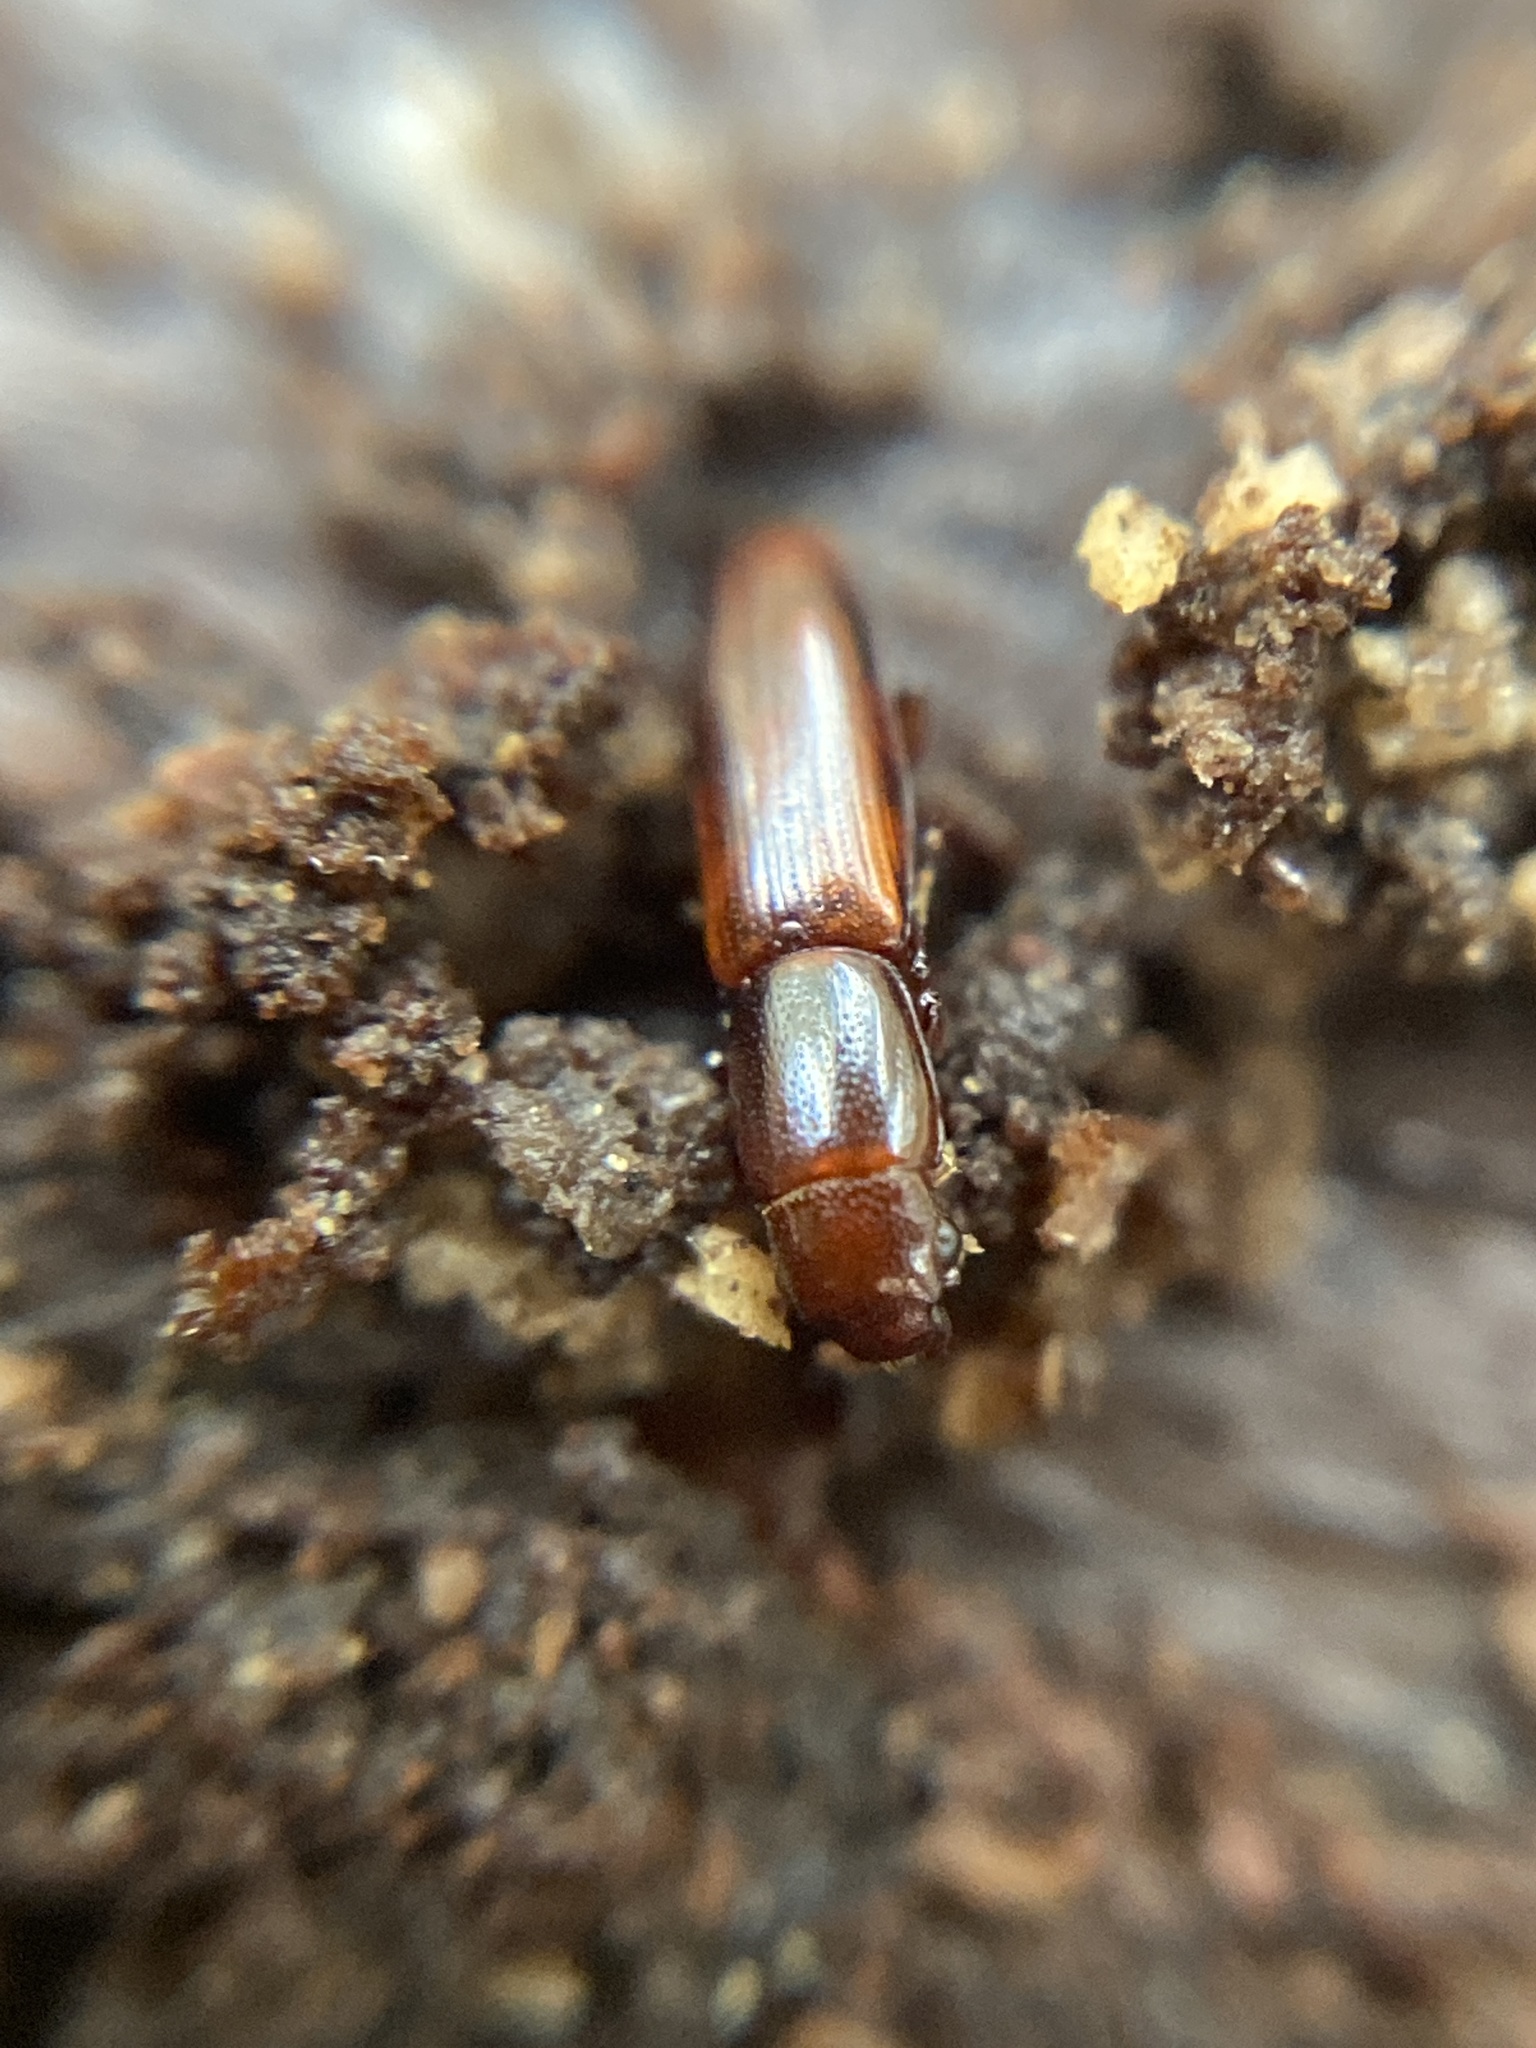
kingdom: Animalia
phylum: Arthropoda
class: Insecta
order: Coleoptera
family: Monotomidae
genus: Rhizophagus
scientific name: Rhizophagus dispar
